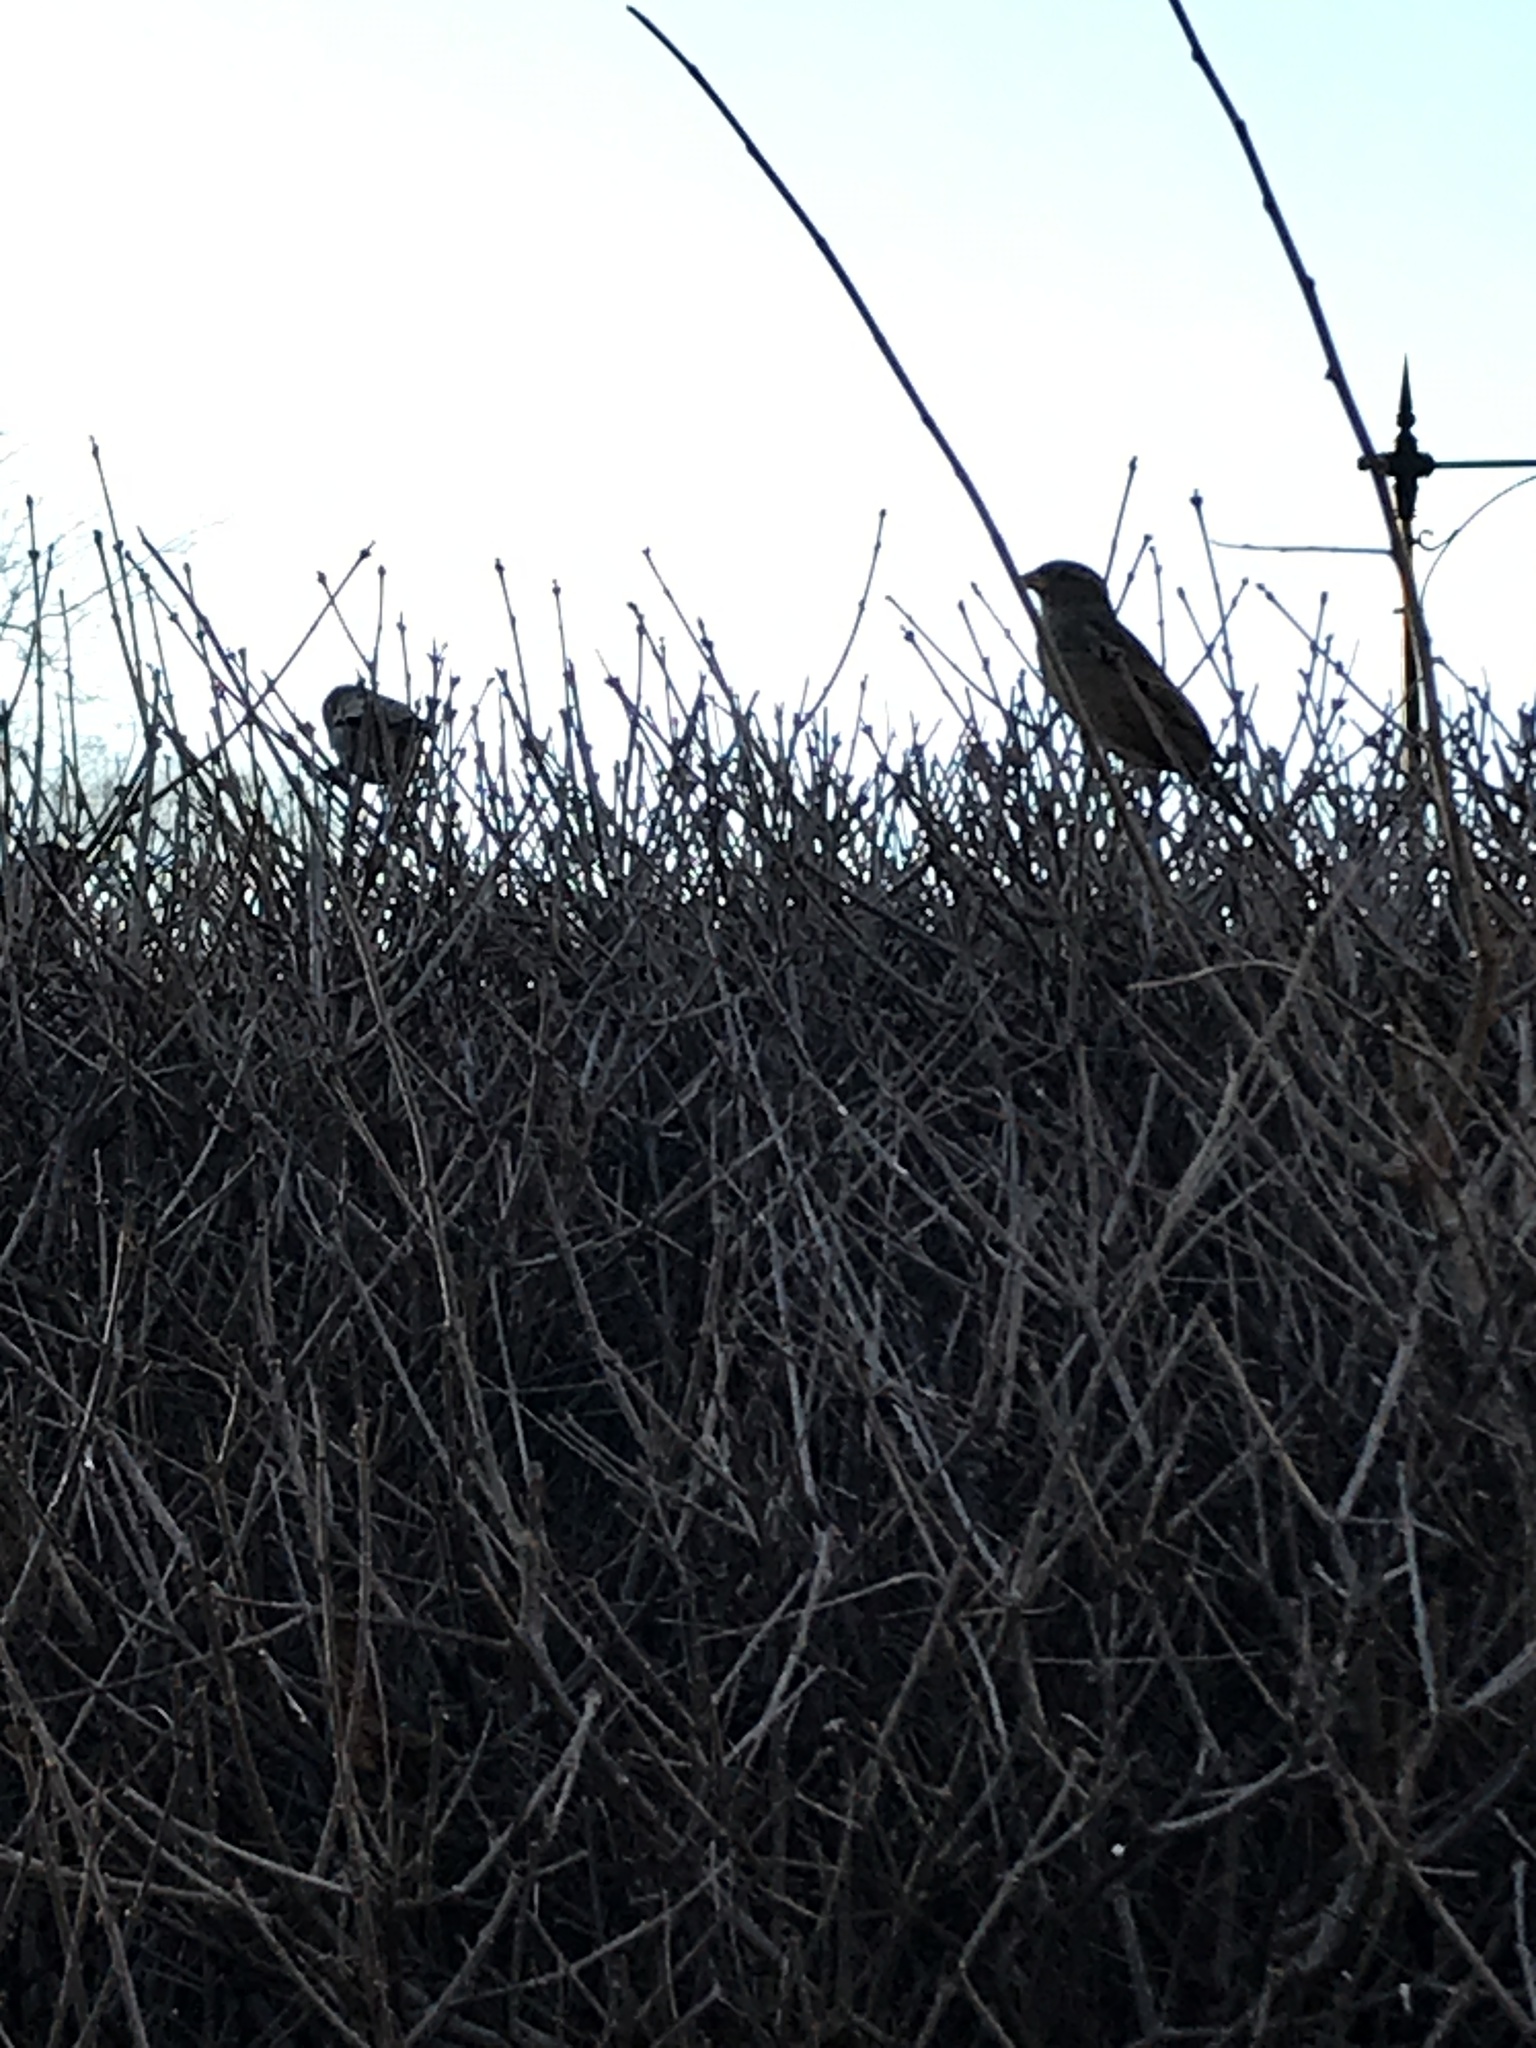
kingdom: Animalia
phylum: Chordata
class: Aves
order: Passeriformes
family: Passeridae
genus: Passer
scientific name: Passer domesticus
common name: House sparrow
